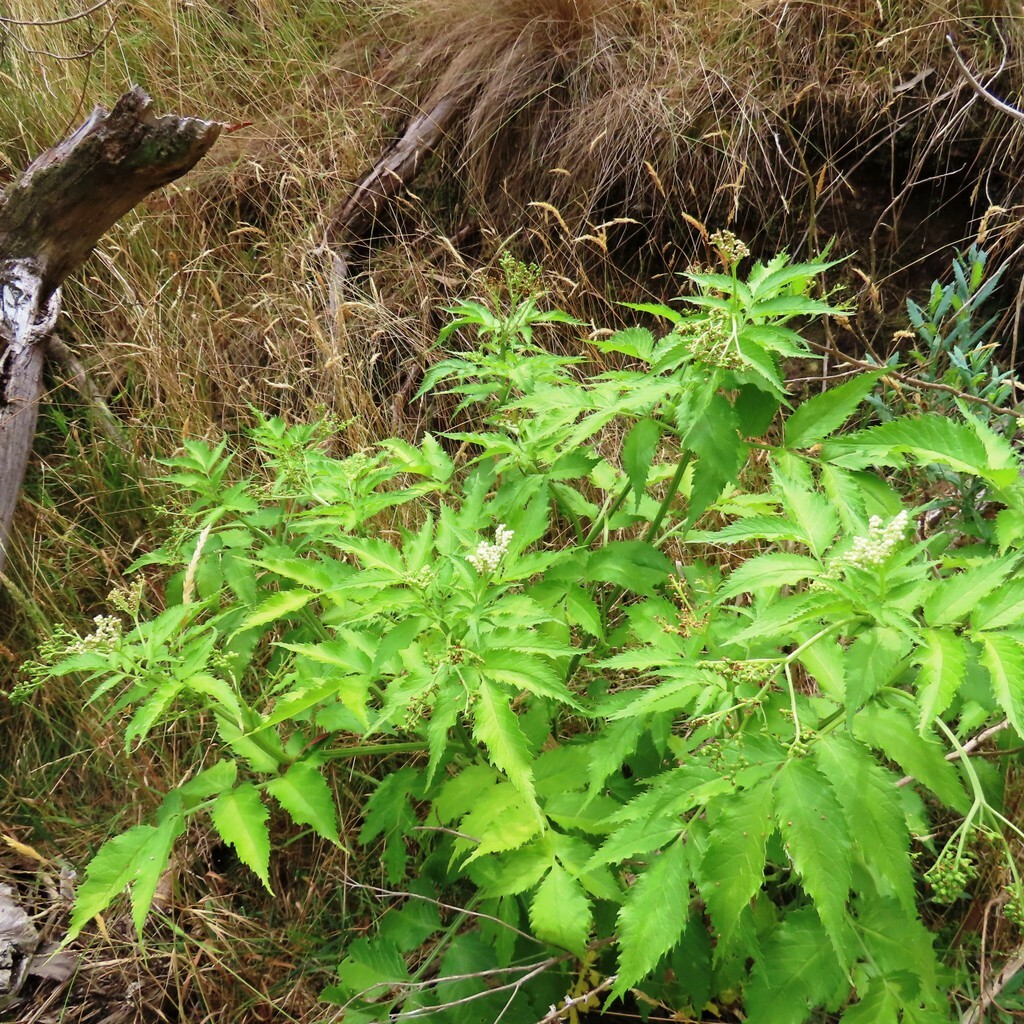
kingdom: Plantae
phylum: Tracheophyta
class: Magnoliopsida
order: Dipsacales
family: Viburnaceae
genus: Sambucus
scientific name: Sambucus gaudichaudiana
